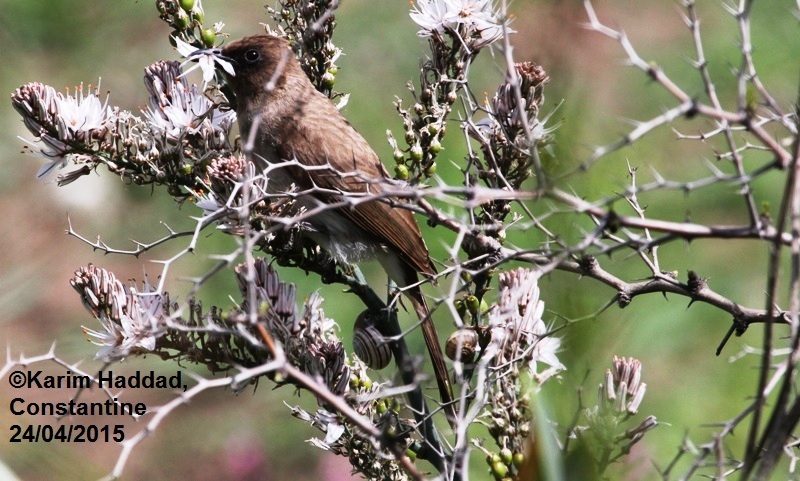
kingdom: Animalia
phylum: Chordata
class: Aves
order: Passeriformes
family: Pycnonotidae
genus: Pycnonotus
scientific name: Pycnonotus barbatus
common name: Common bulbul
